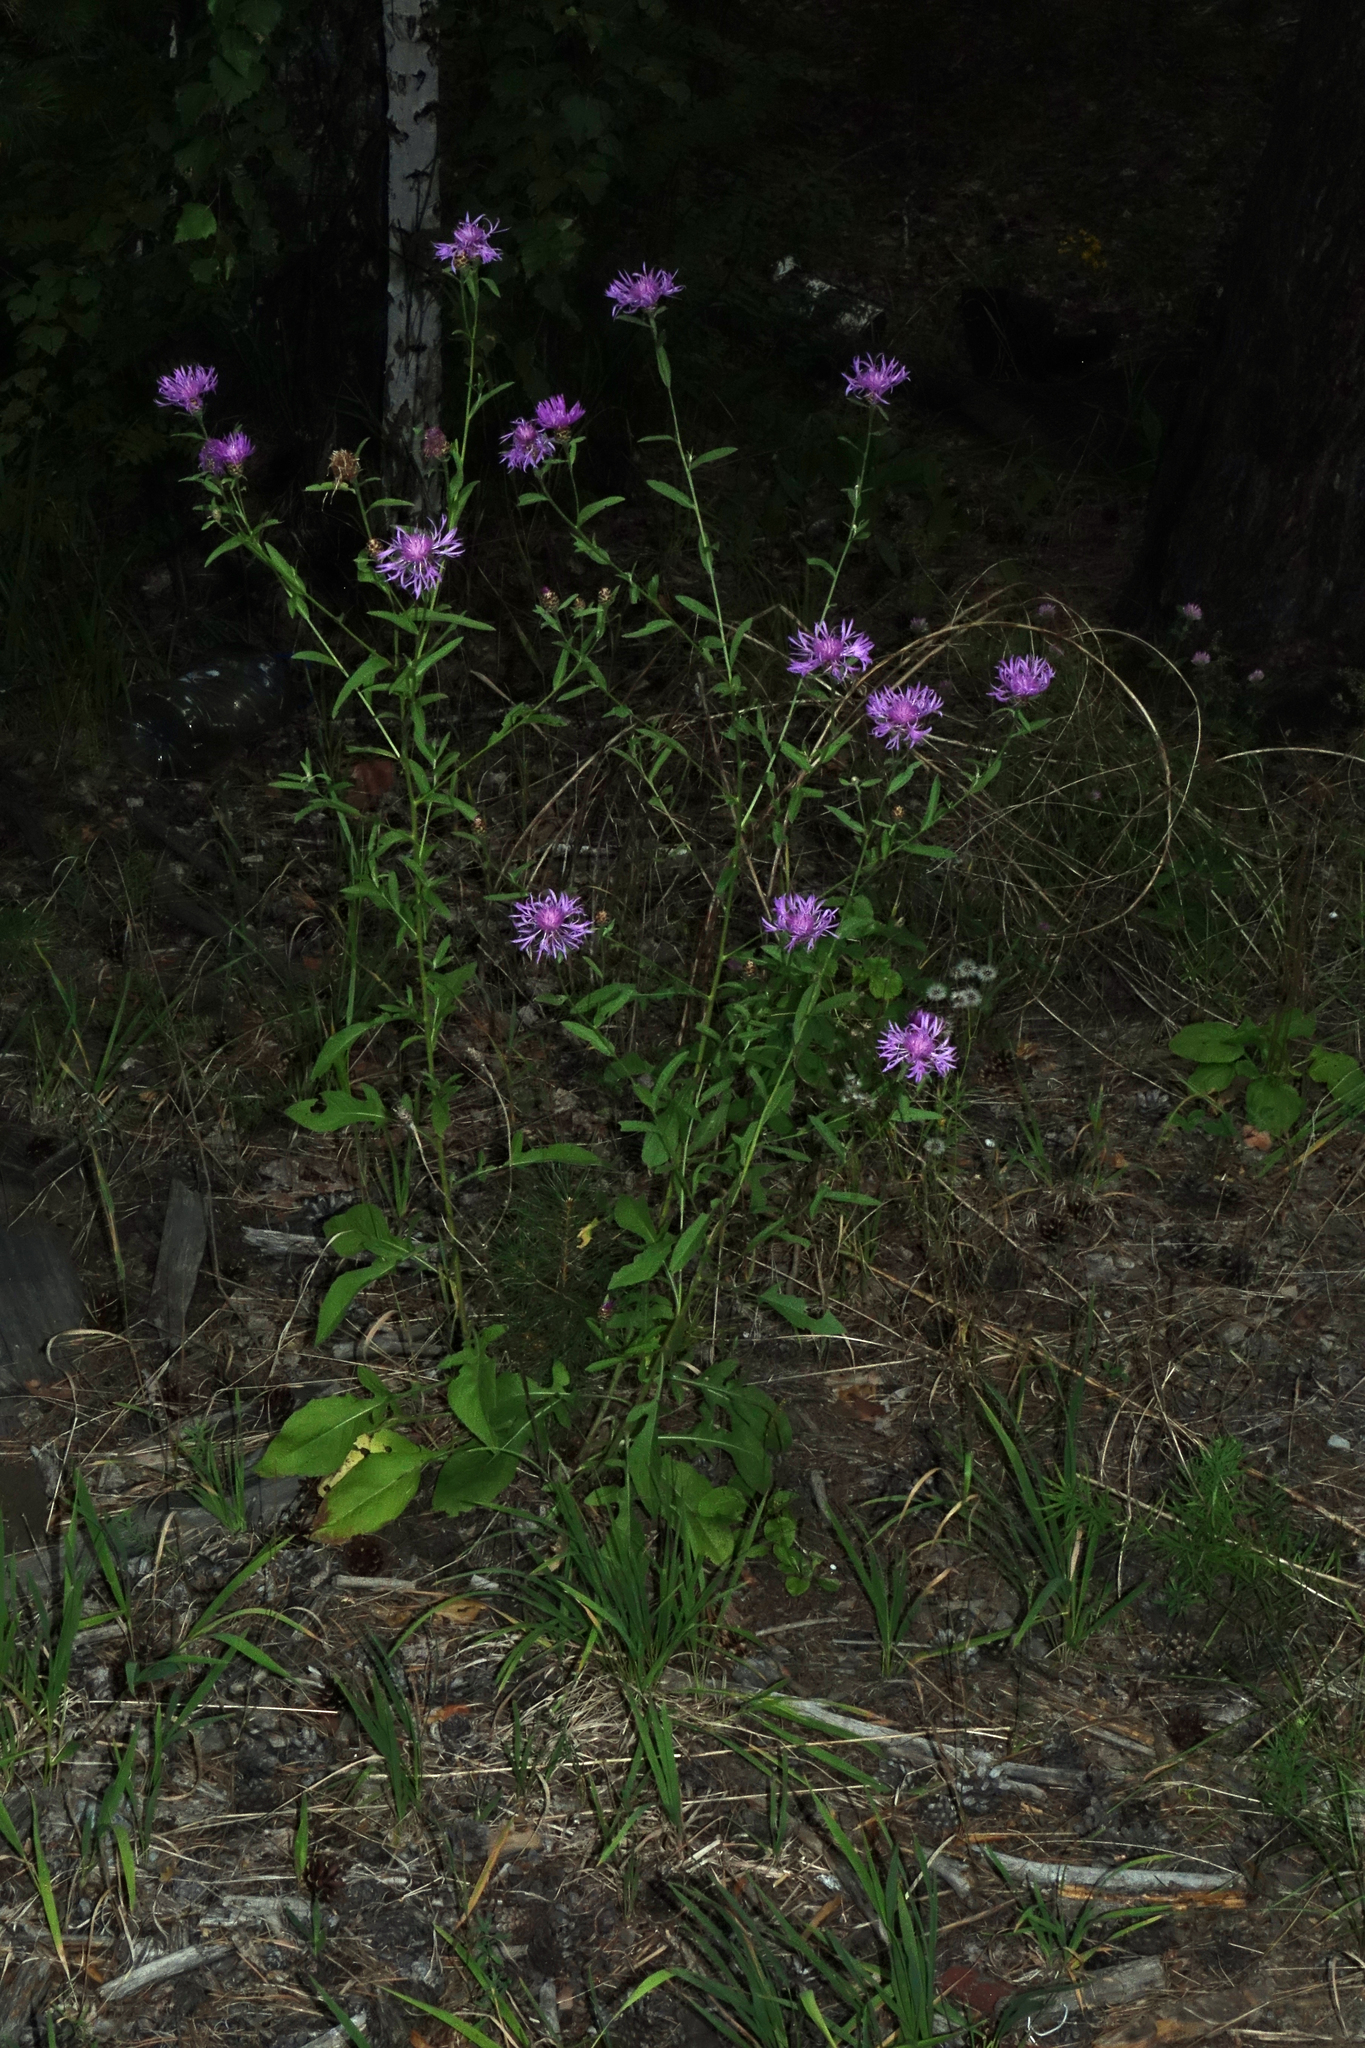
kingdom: Plantae
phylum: Tracheophyta
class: Magnoliopsida
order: Asterales
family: Asteraceae
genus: Centaurea
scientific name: Centaurea jacea
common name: Brown knapweed
